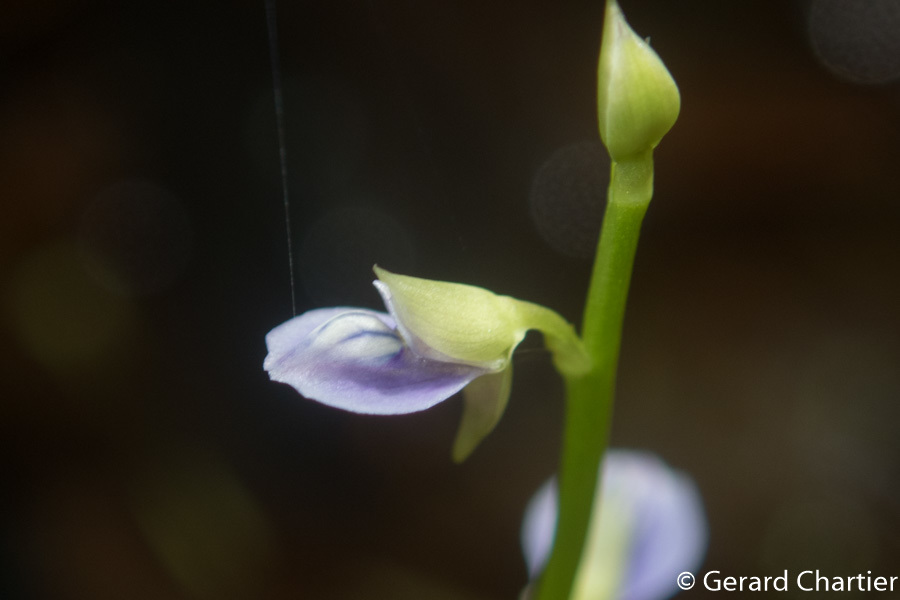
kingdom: Plantae
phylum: Tracheophyta
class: Magnoliopsida
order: Lamiales
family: Lentibulariaceae
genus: Utricularia
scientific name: Utricularia uliginosa
